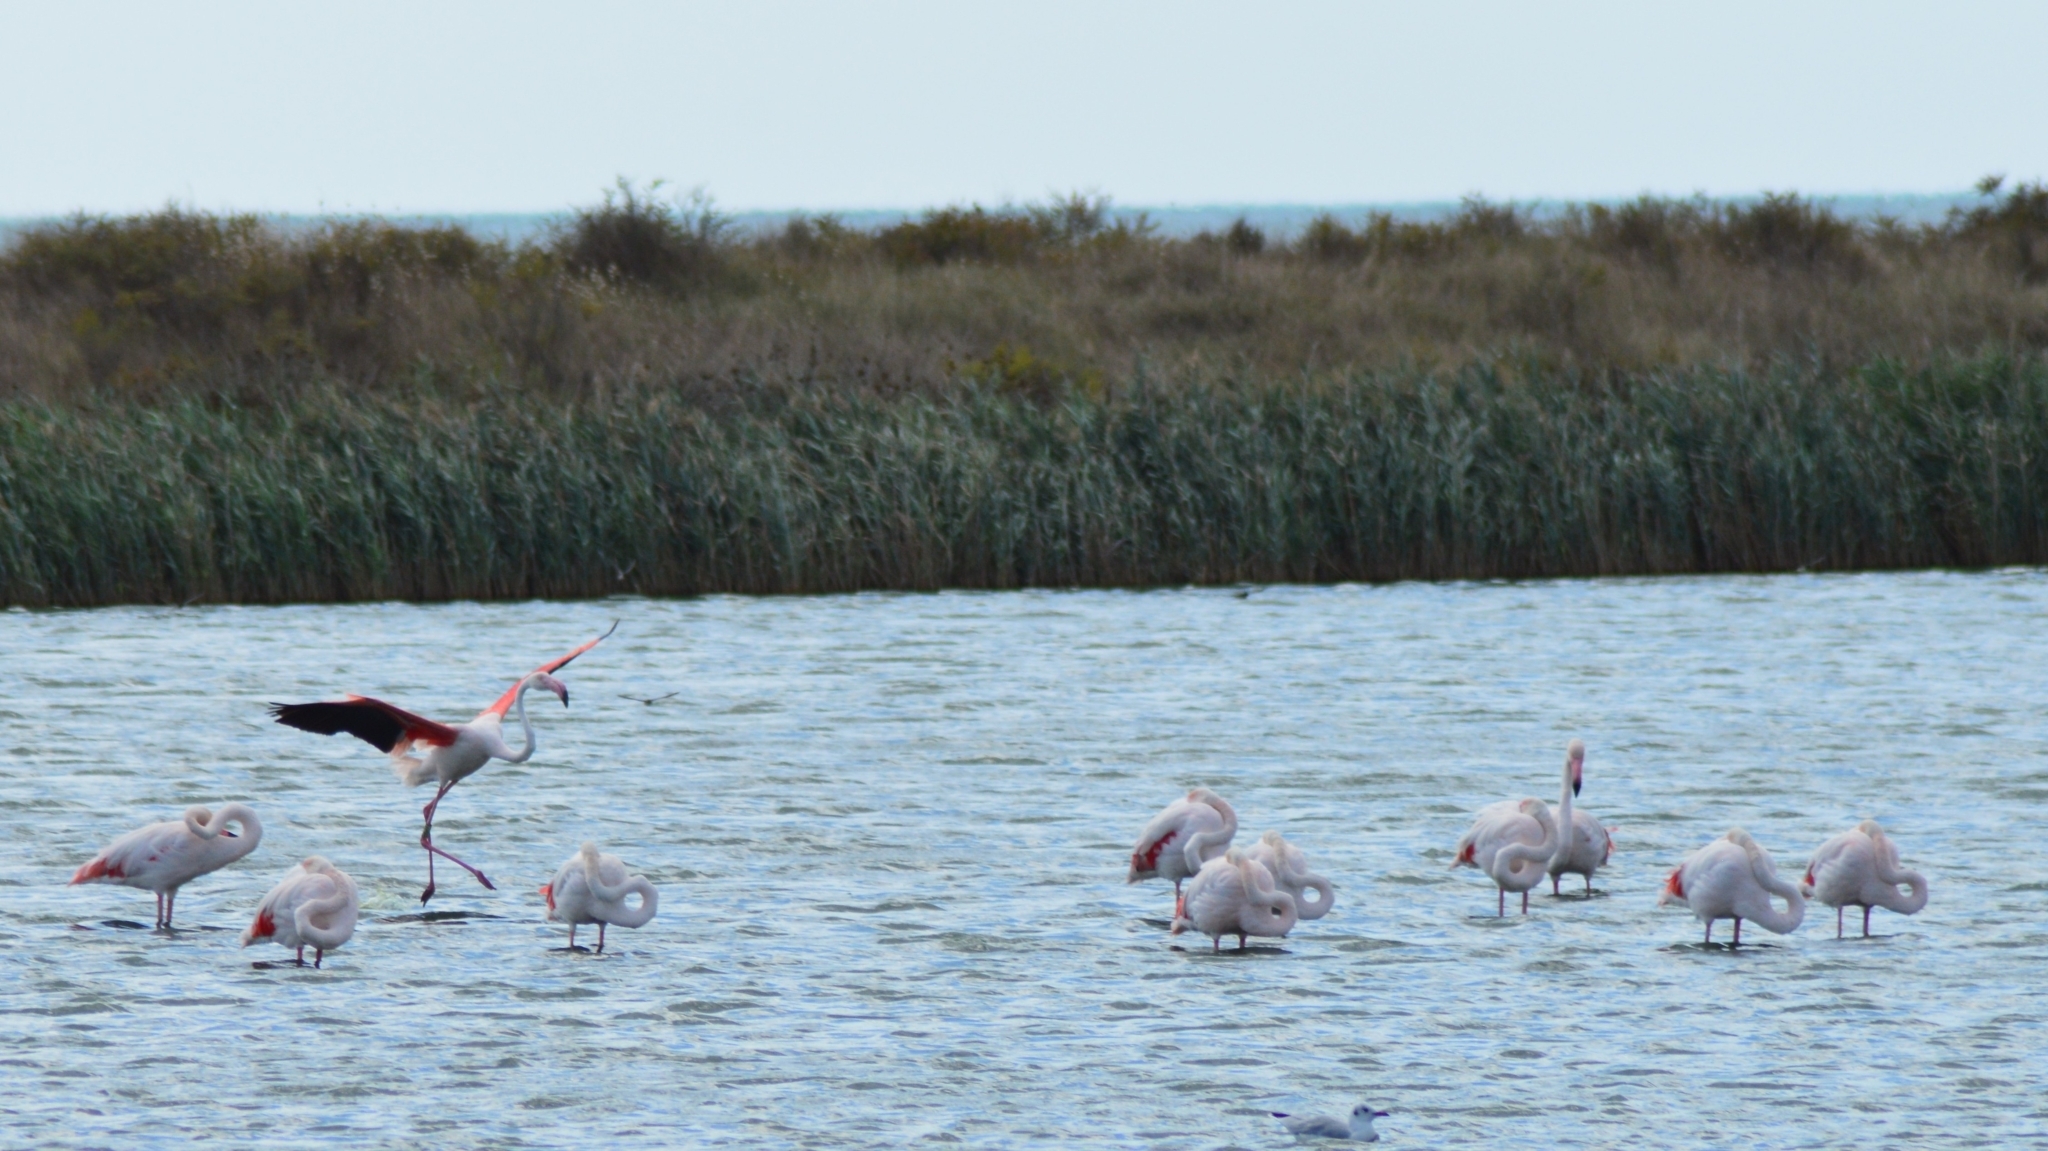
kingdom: Animalia
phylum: Chordata
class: Aves
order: Phoenicopteriformes
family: Phoenicopteridae
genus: Phoenicopterus
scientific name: Phoenicopterus roseus
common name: Greater flamingo
